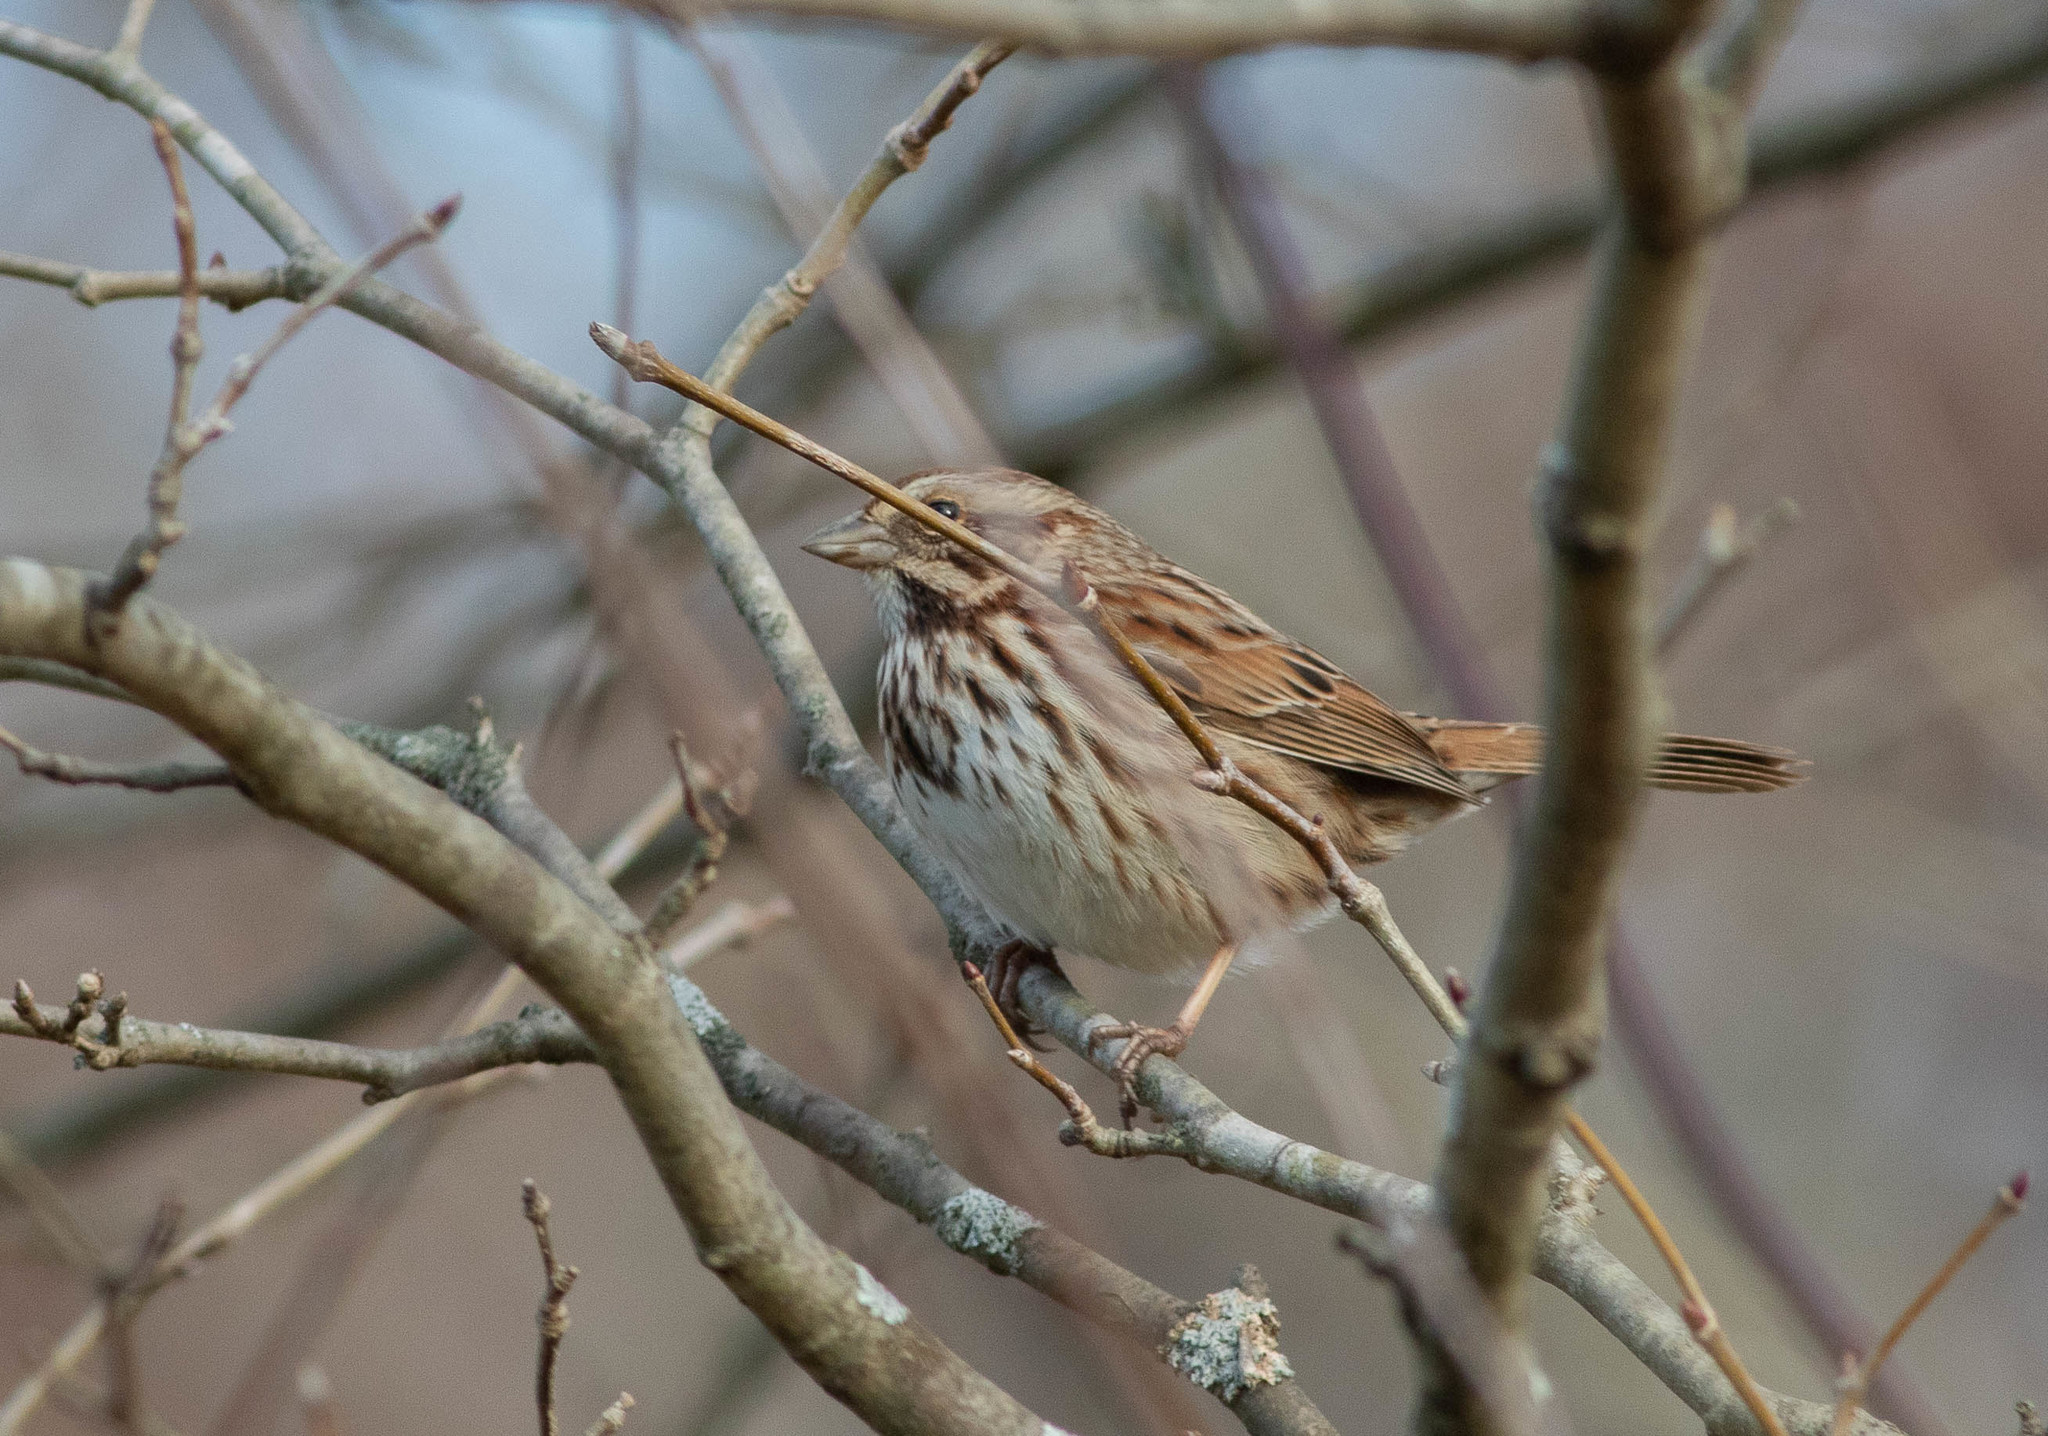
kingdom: Animalia
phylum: Chordata
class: Aves
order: Passeriformes
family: Passerellidae
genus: Melospiza
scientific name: Melospiza melodia
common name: Song sparrow
